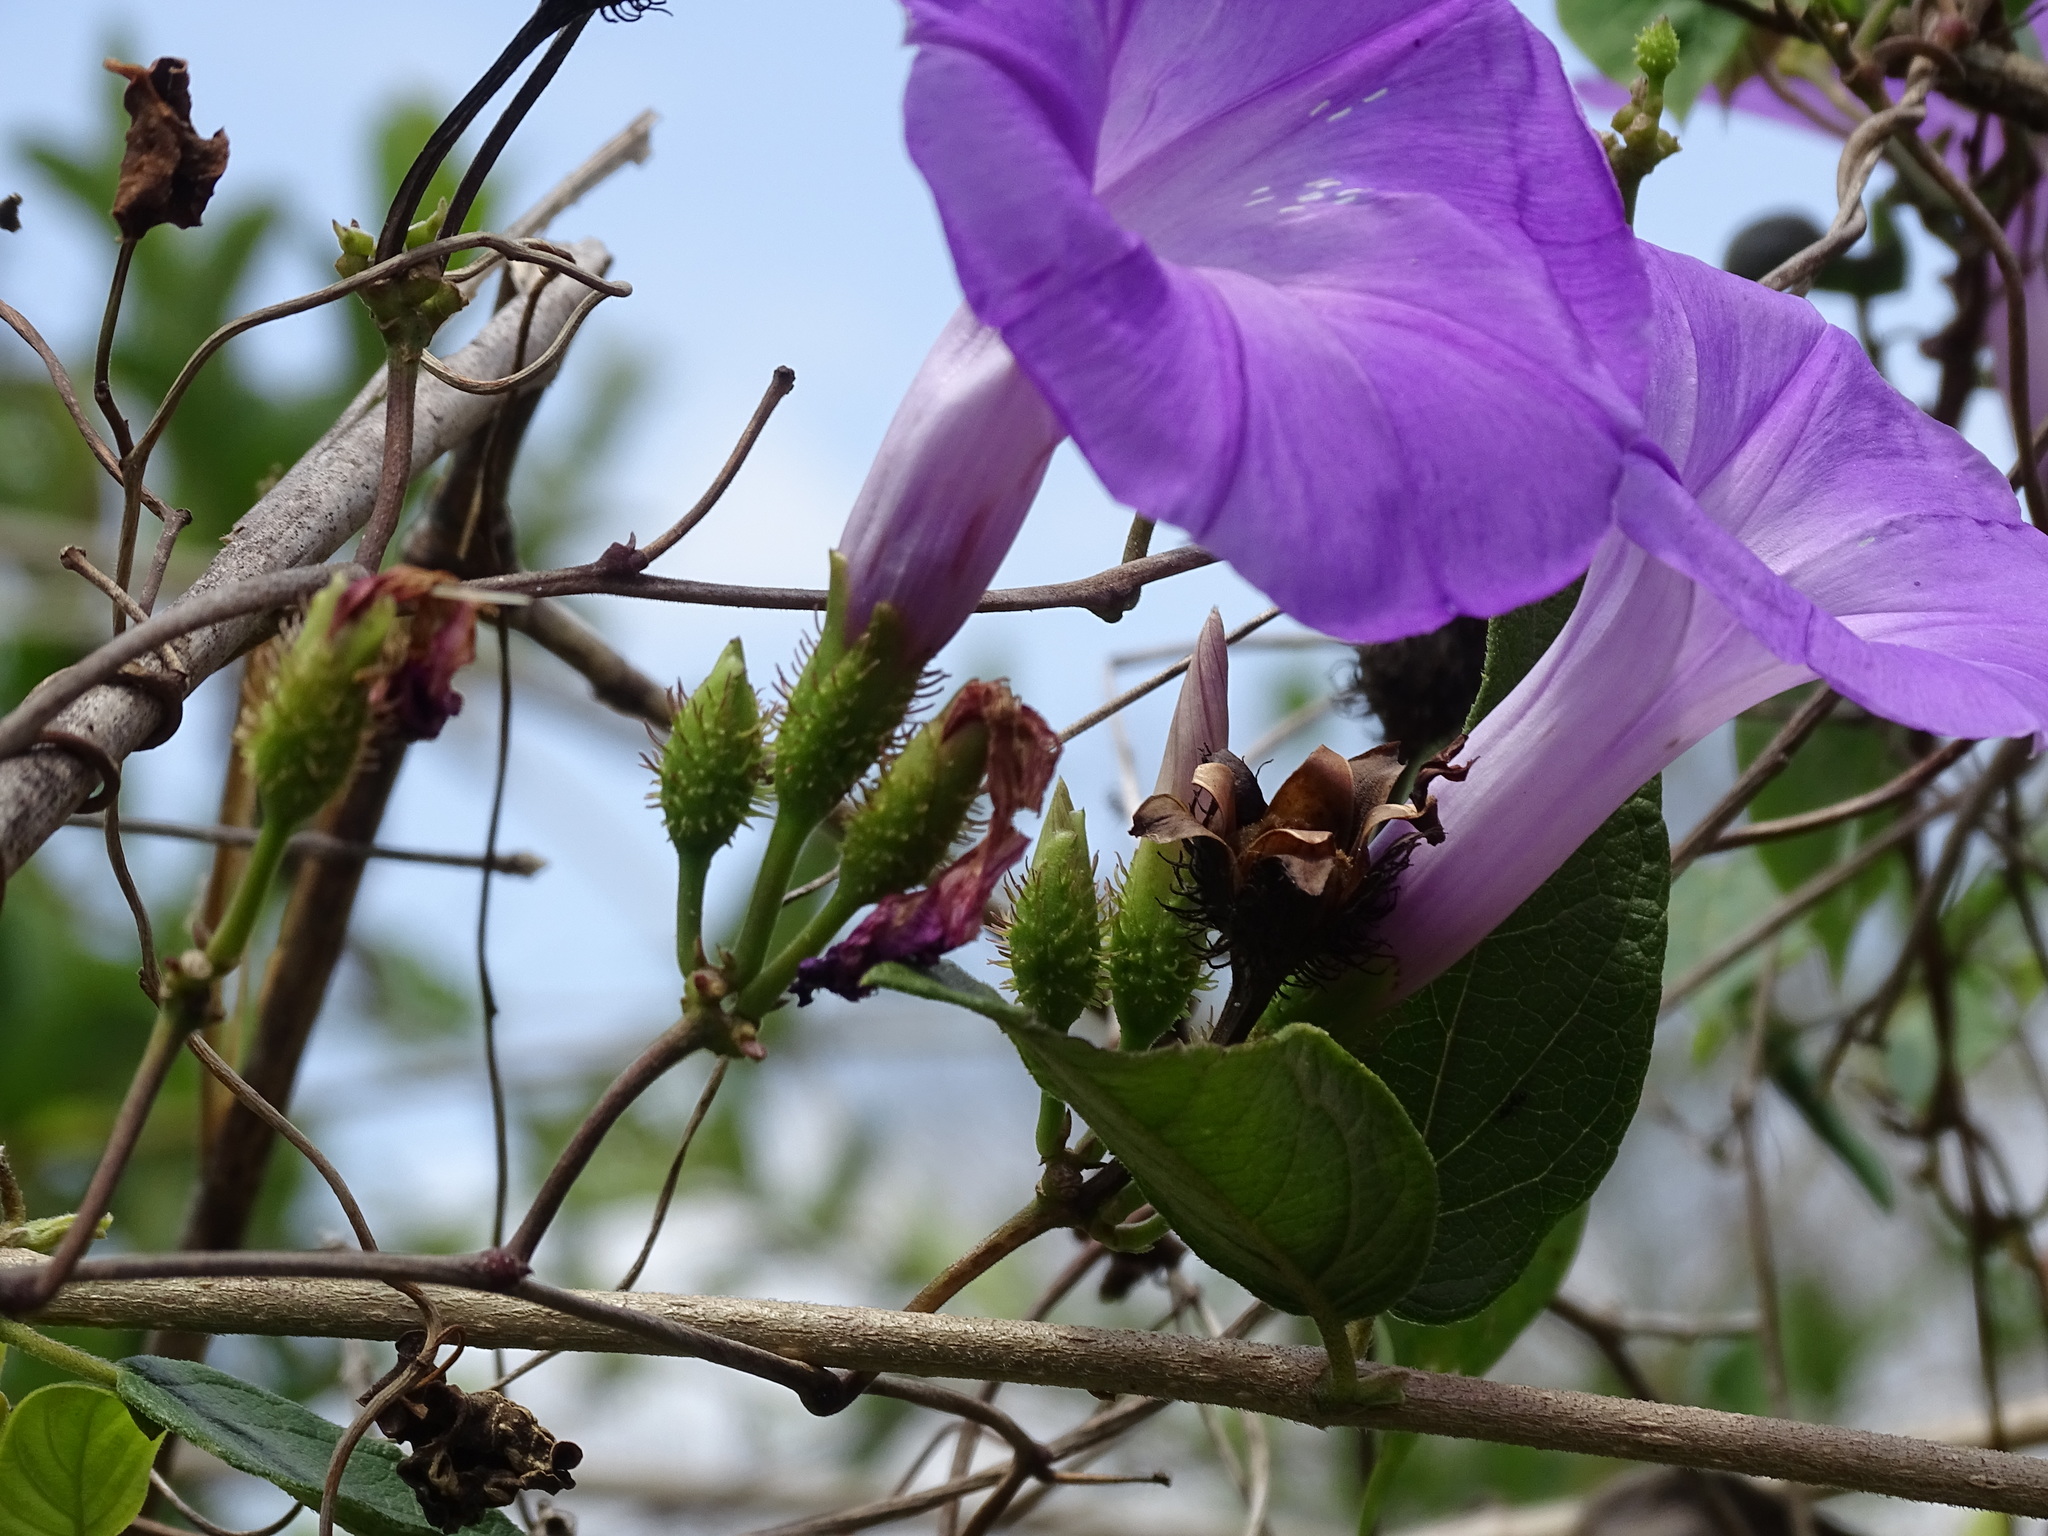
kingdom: Plantae
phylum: Tracheophyta
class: Magnoliopsida
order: Solanales
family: Convolvulaceae
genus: Ipomoea
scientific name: Ipomoea crinicalyx
